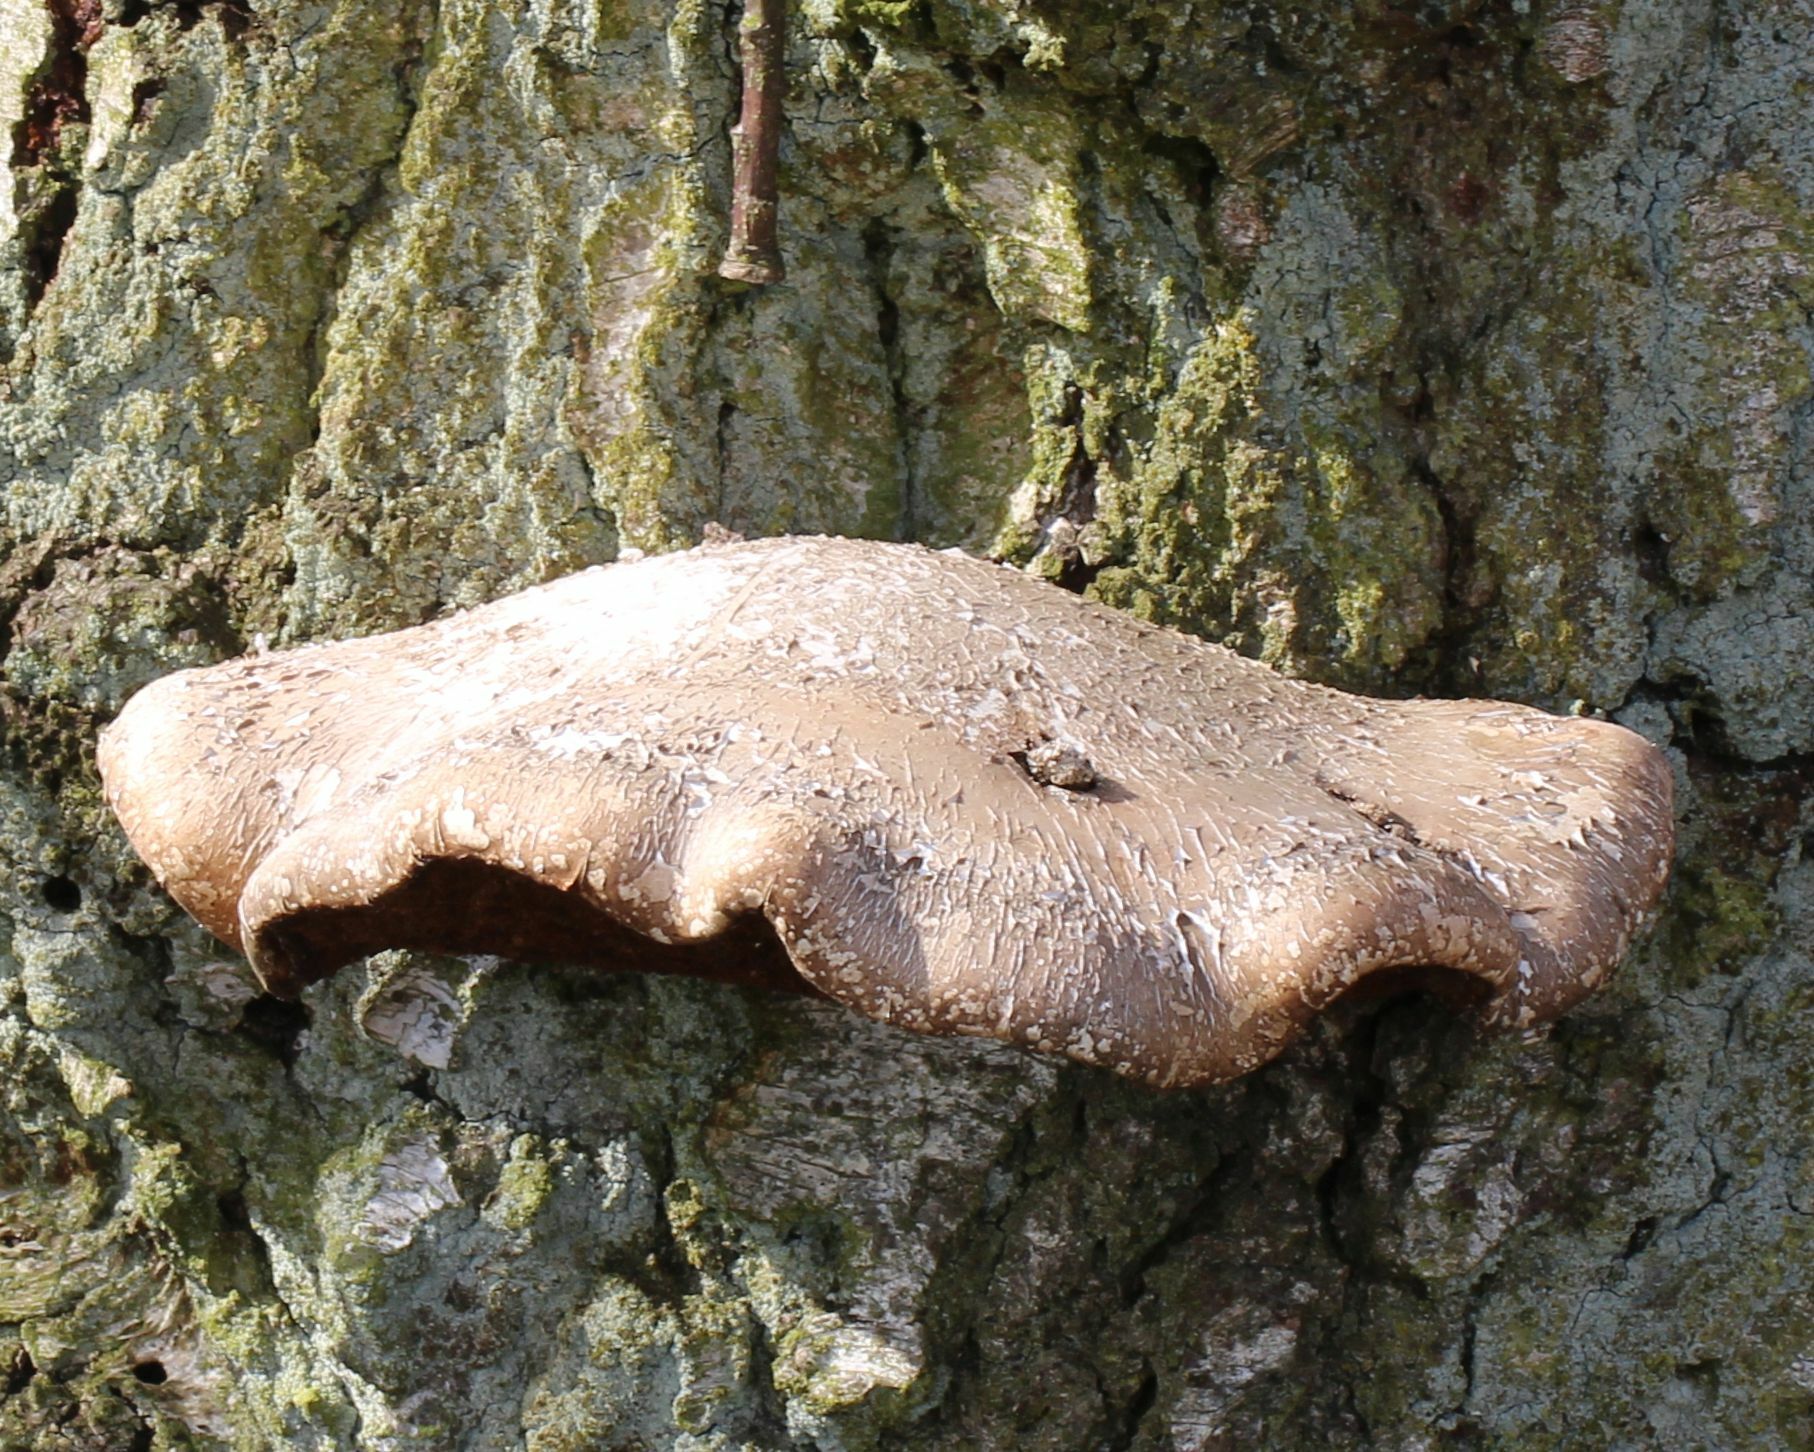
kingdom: Fungi
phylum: Basidiomycota
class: Agaricomycetes
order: Polyporales
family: Fomitopsidaceae
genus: Fomitopsis
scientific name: Fomitopsis betulina
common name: Birch polypore
